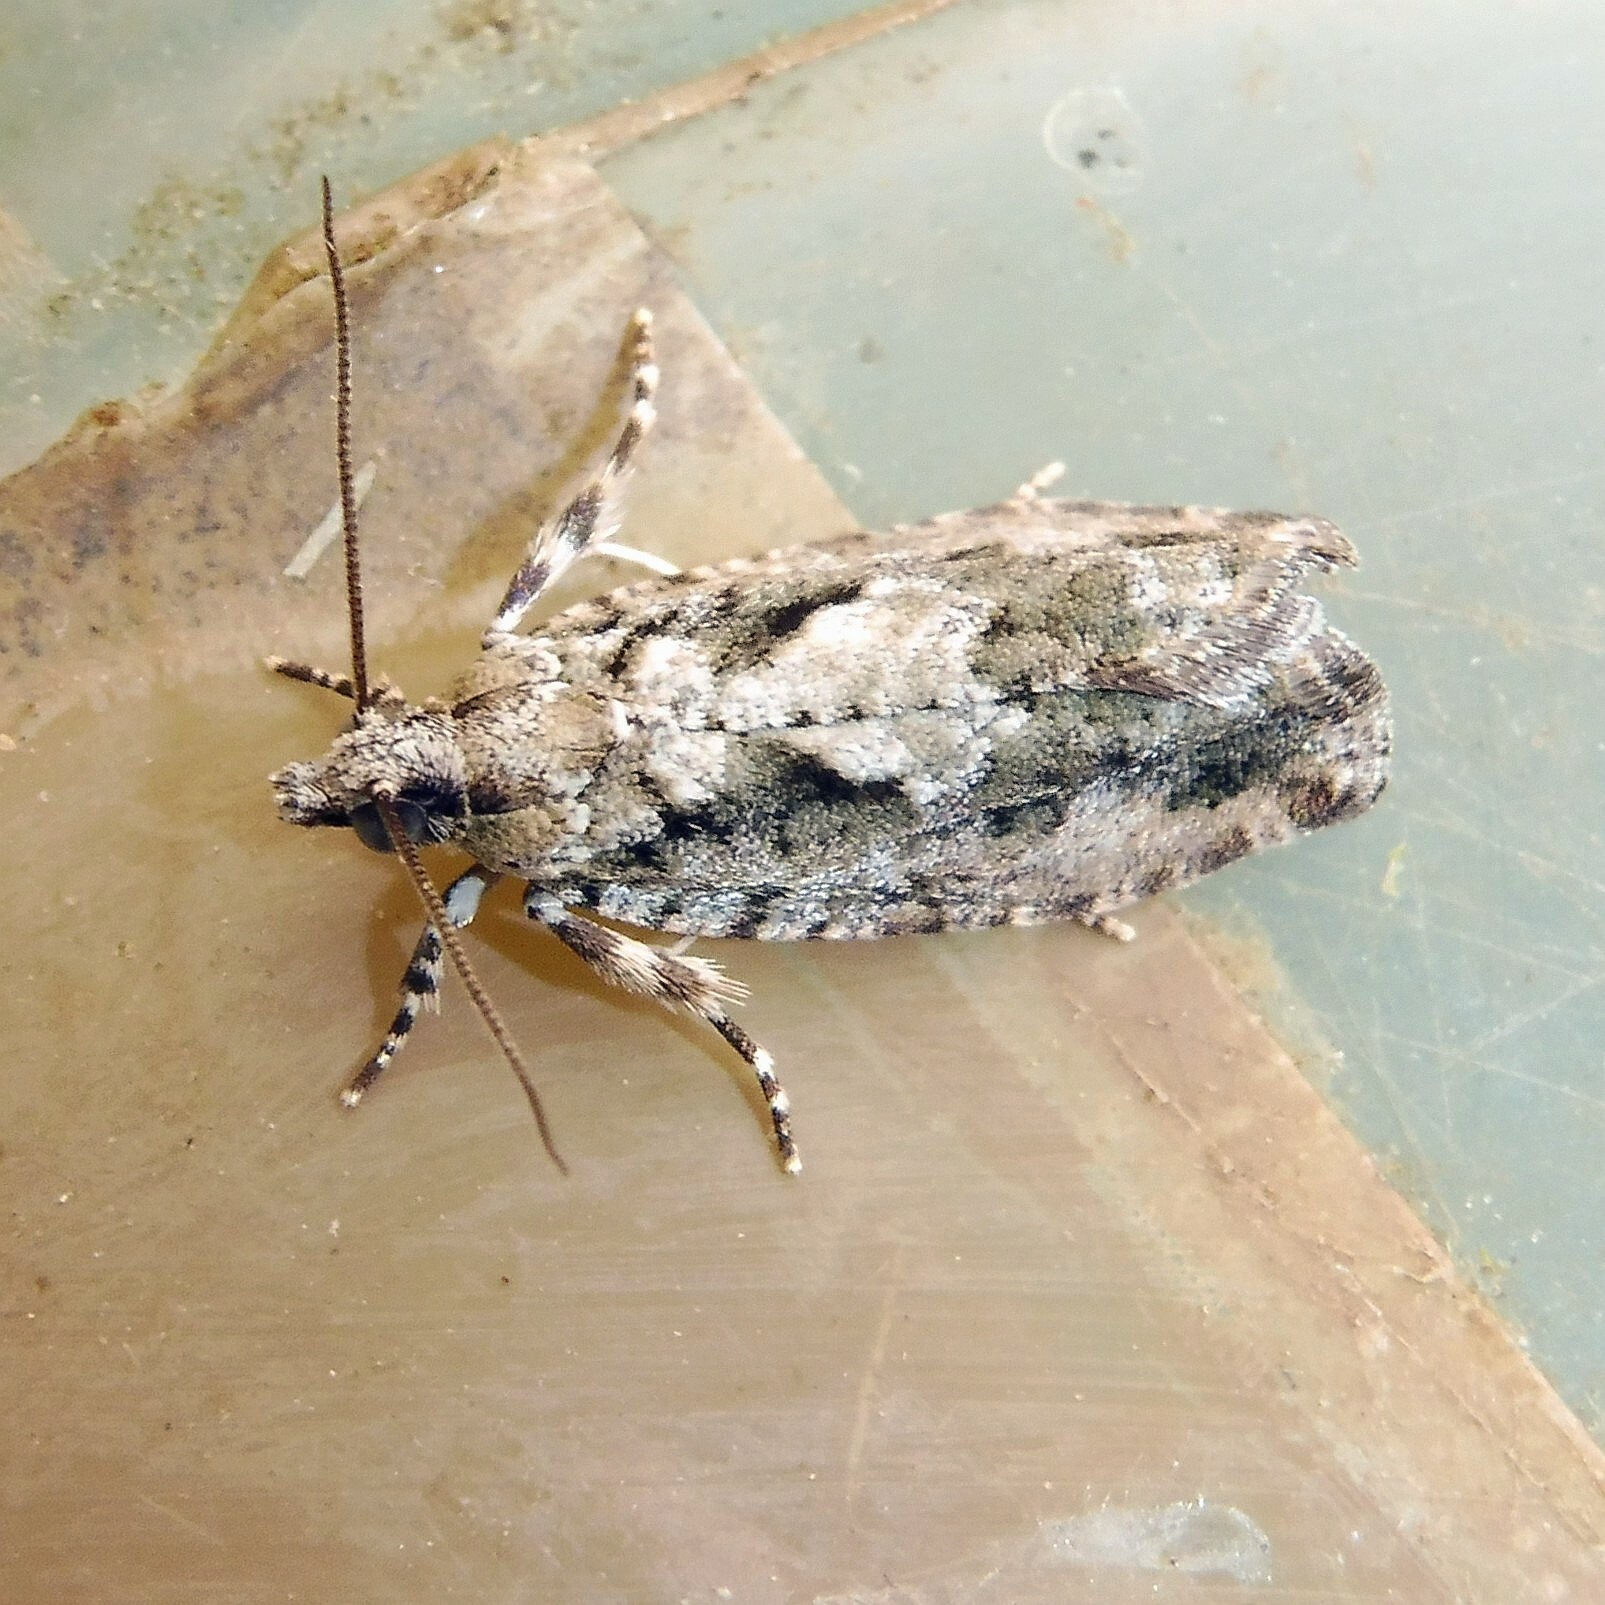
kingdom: Animalia
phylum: Arthropoda
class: Insecta
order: Lepidoptera
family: Tortricidae
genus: Zeiraphera
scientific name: Zeiraphera isertana
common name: Cock's-head bell
